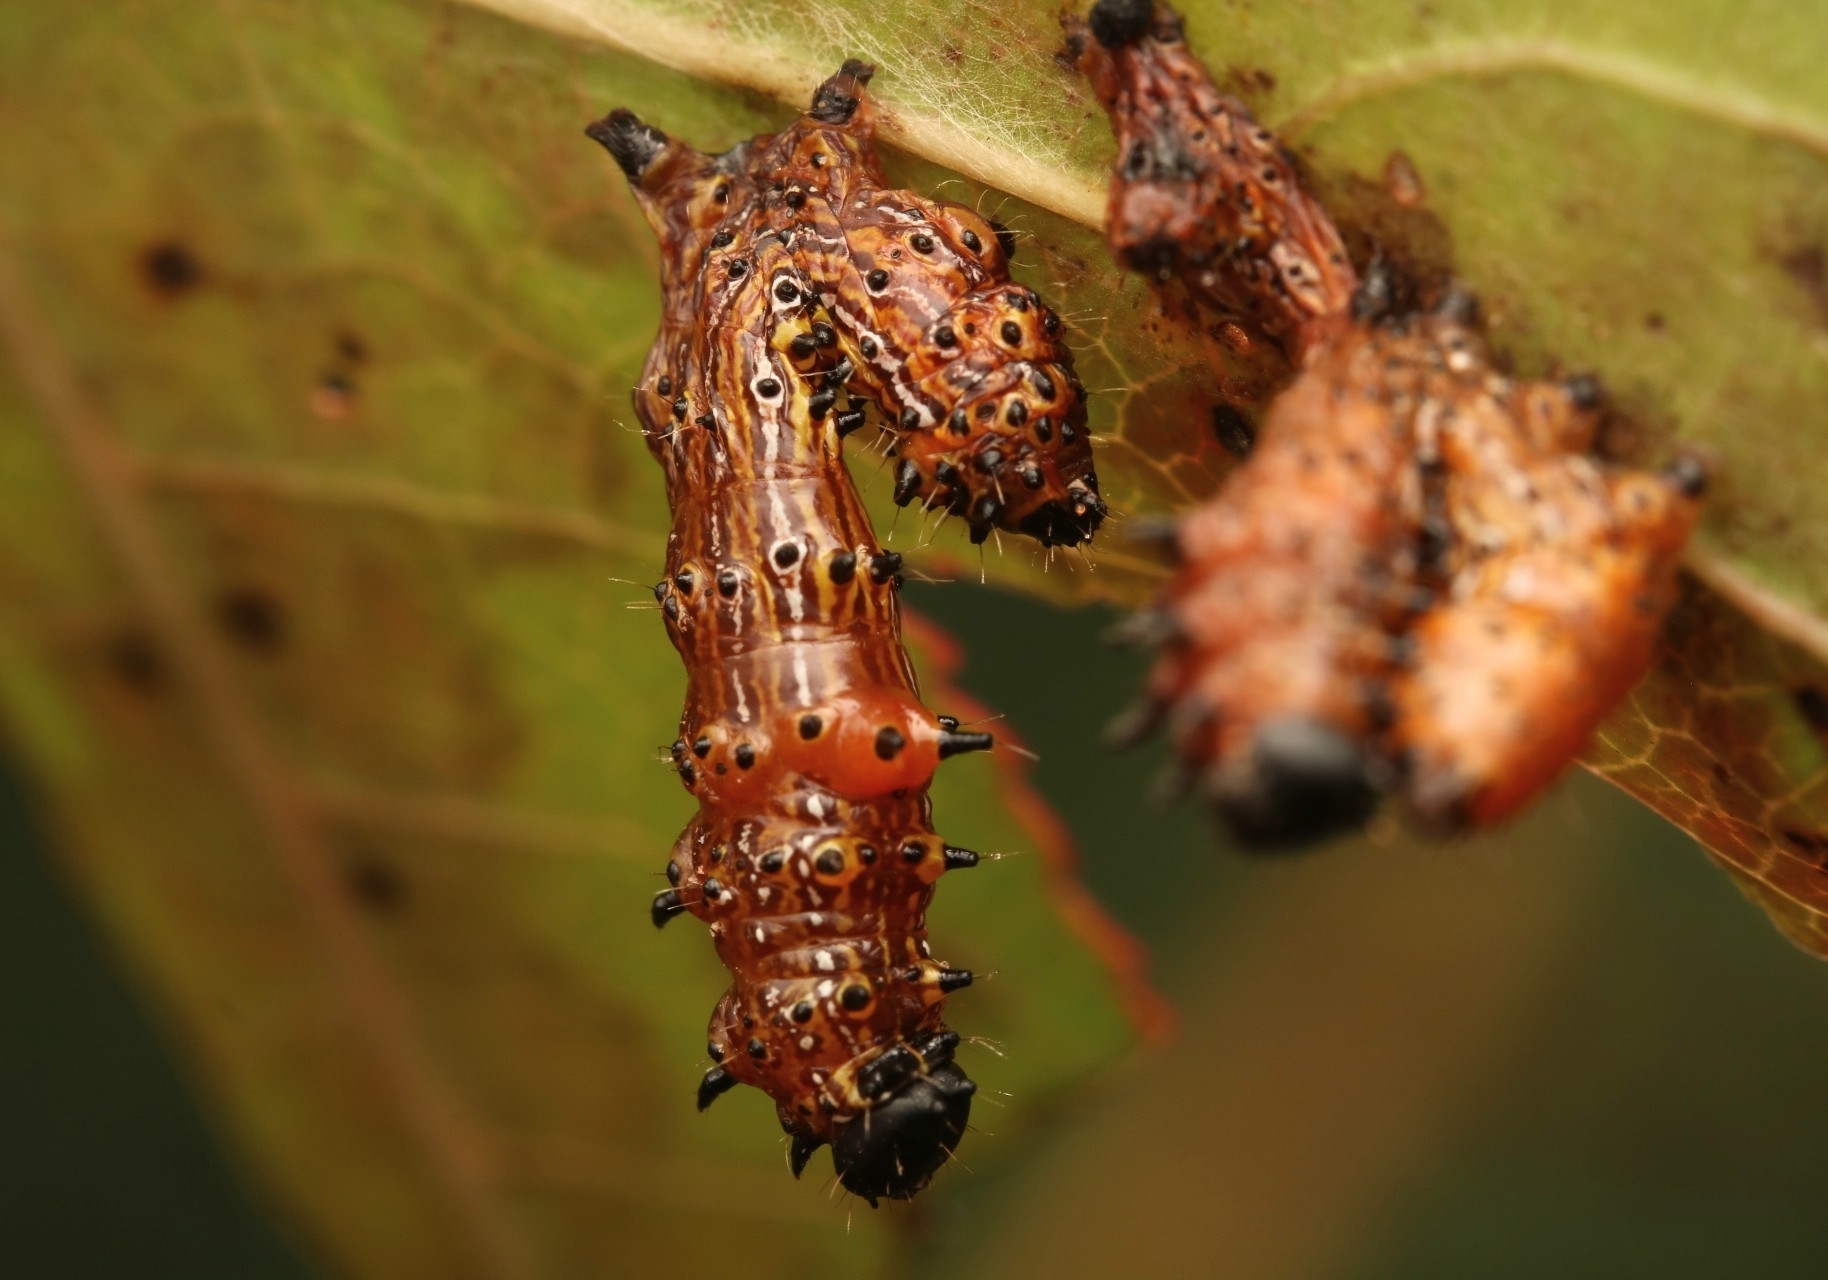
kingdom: Animalia
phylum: Arthropoda
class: Insecta
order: Lepidoptera
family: Notodontidae
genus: Schizura
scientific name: Schizura
